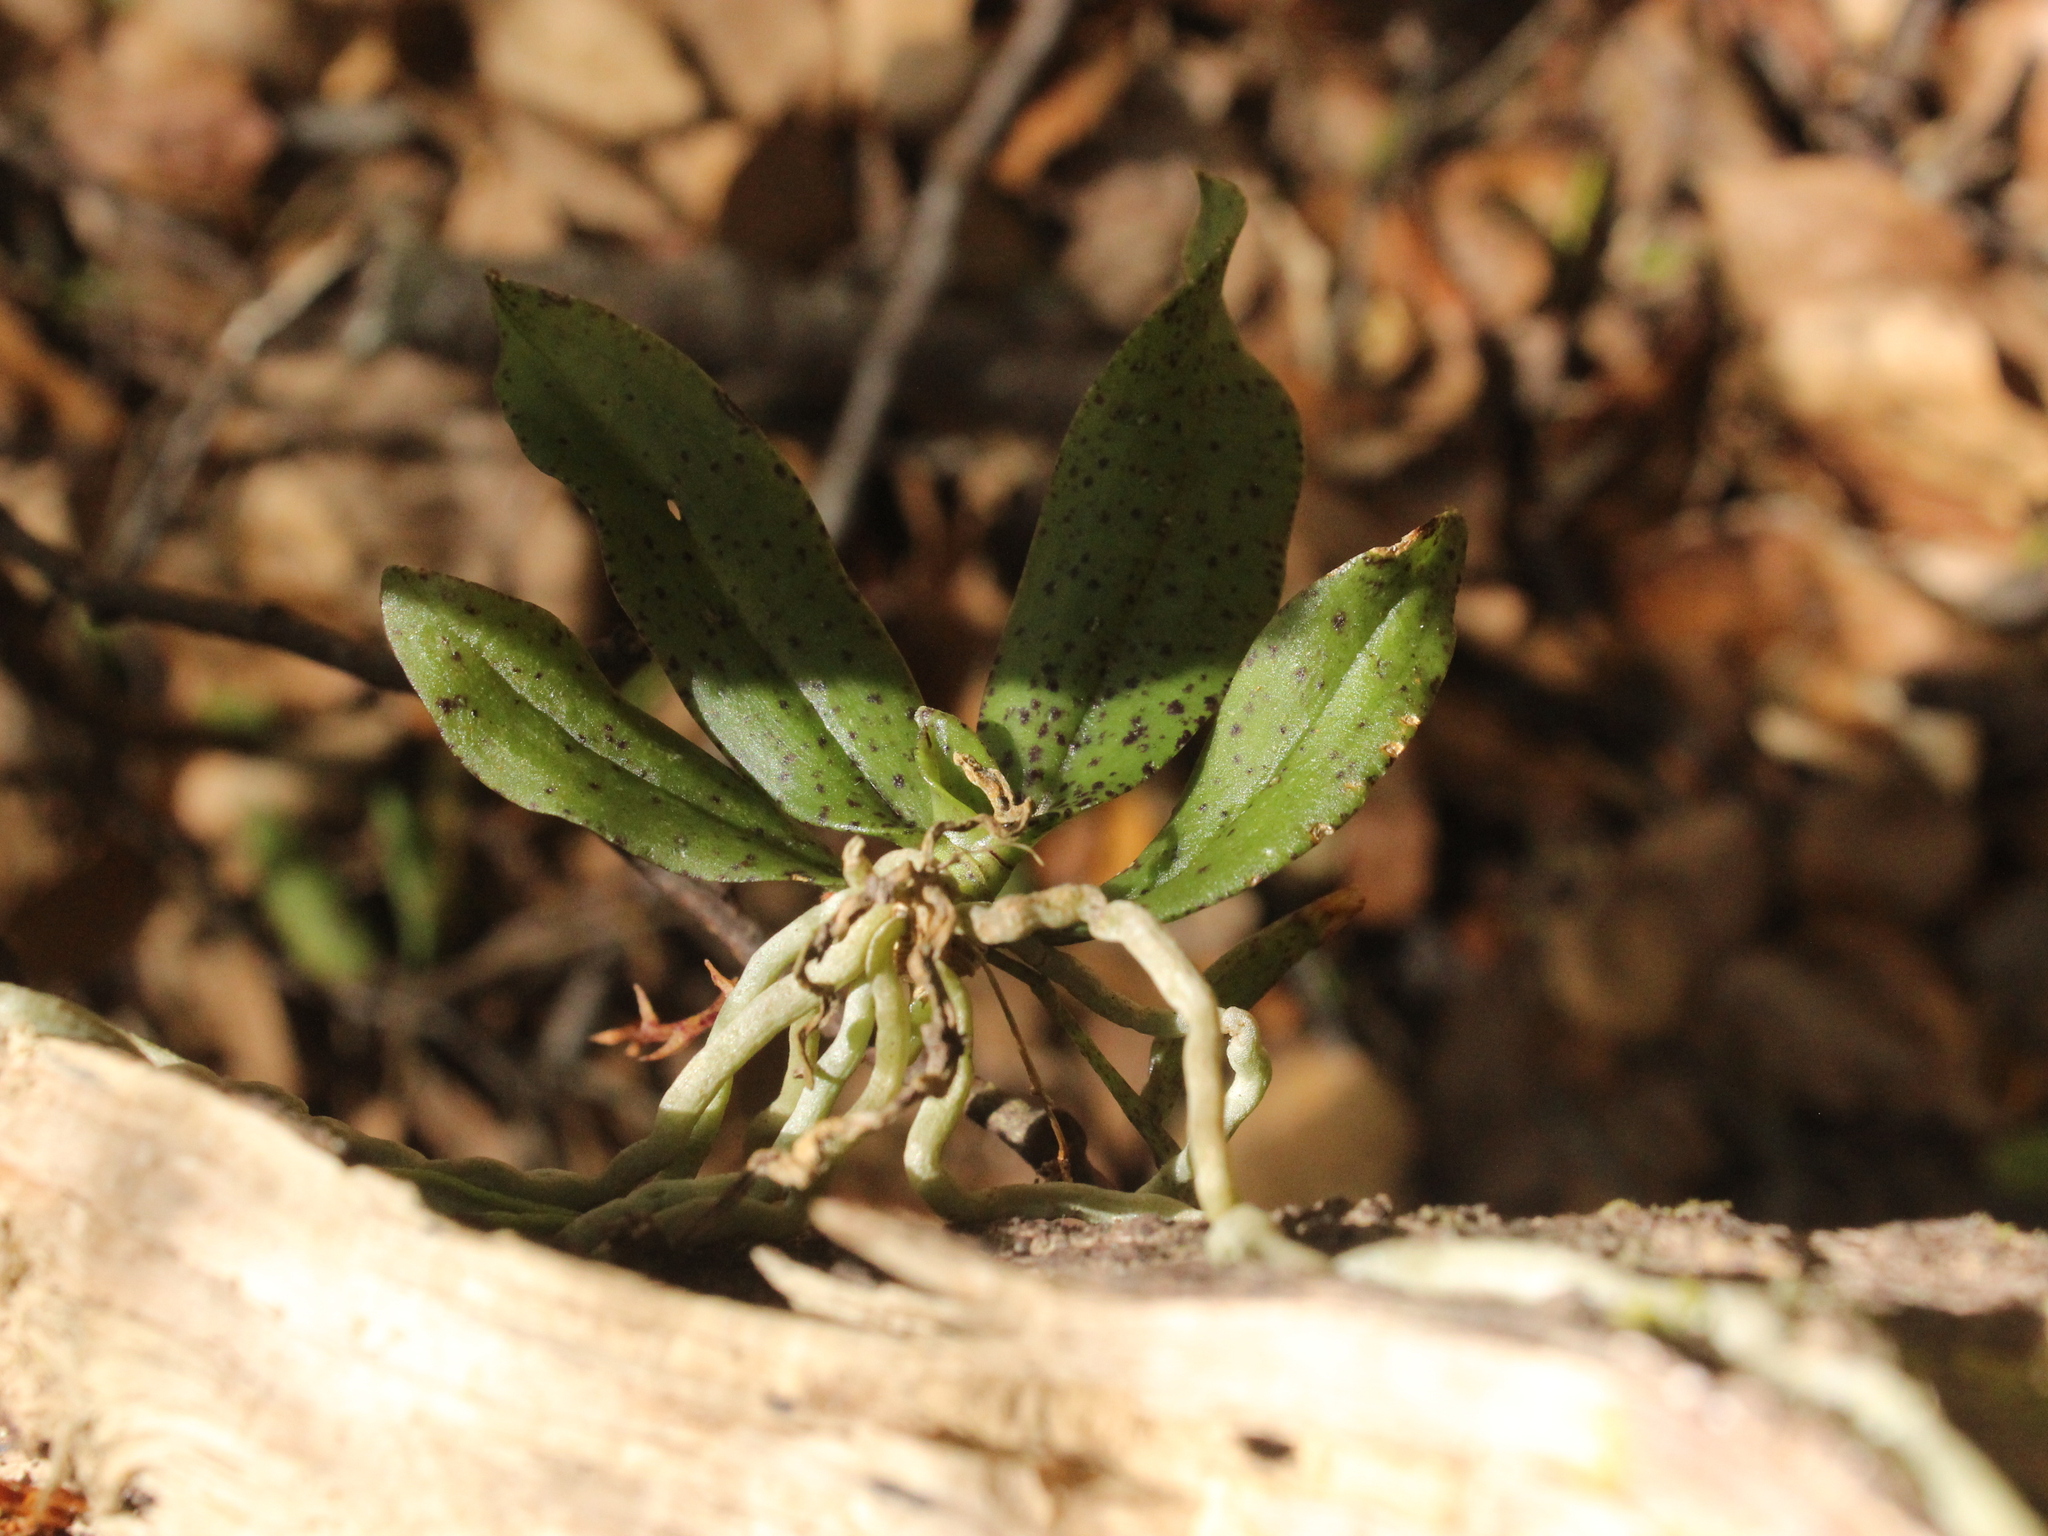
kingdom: Plantae
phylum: Tracheophyta
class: Liliopsida
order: Asparagales
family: Orchidaceae
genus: Drymoanthus
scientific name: Drymoanthus flavus
